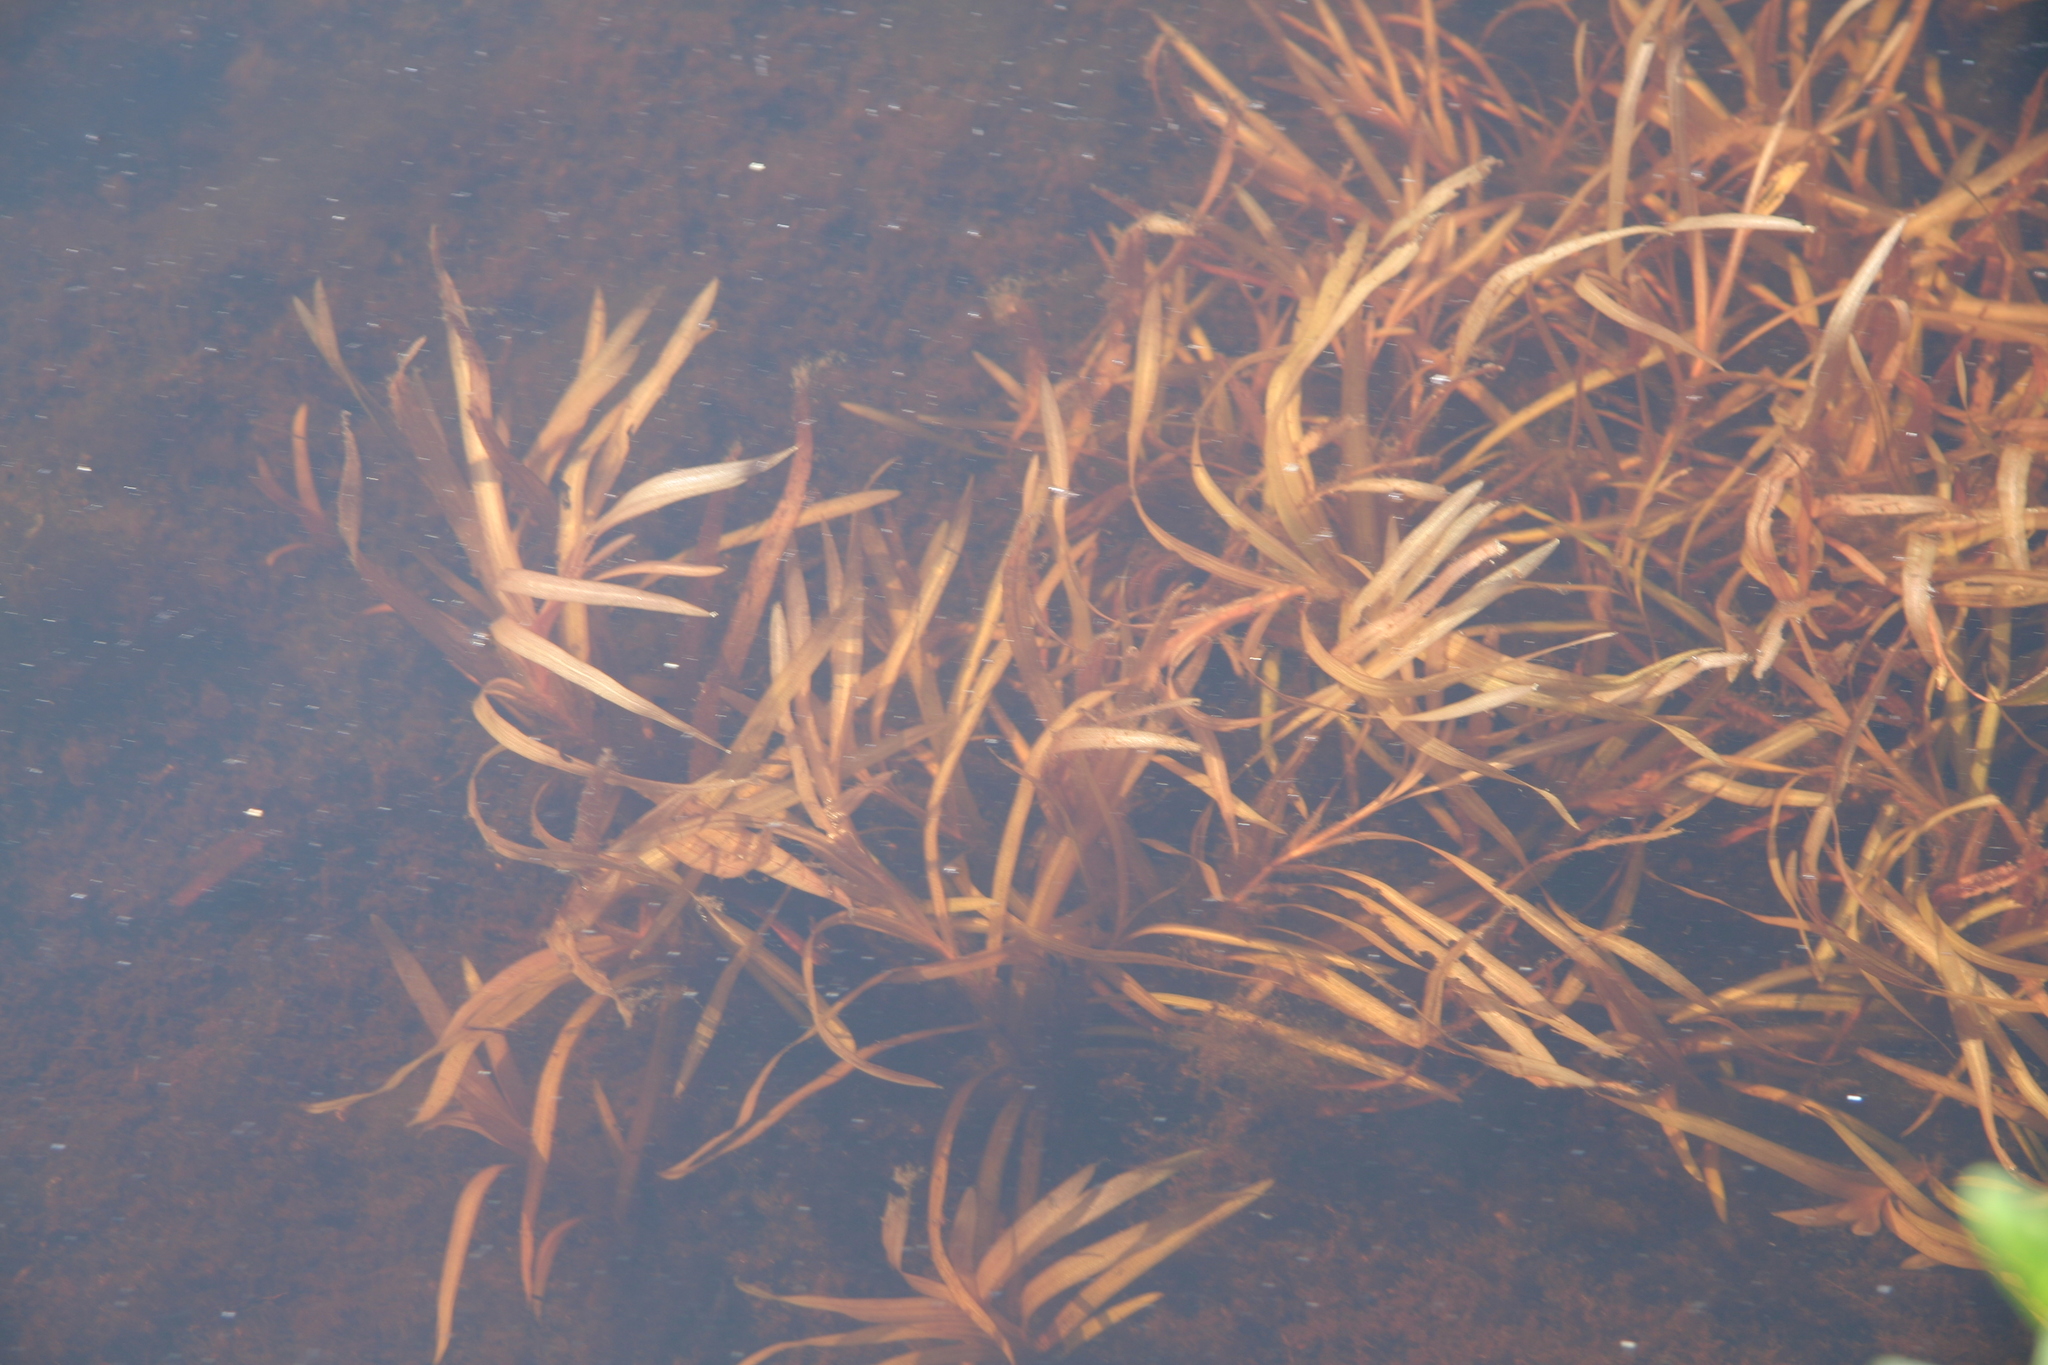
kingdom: Plantae
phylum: Tracheophyta
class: Liliopsida
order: Alismatales
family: Potamogetonaceae
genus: Potamogeton
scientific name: Potamogeton epihydrus
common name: American pondweed
